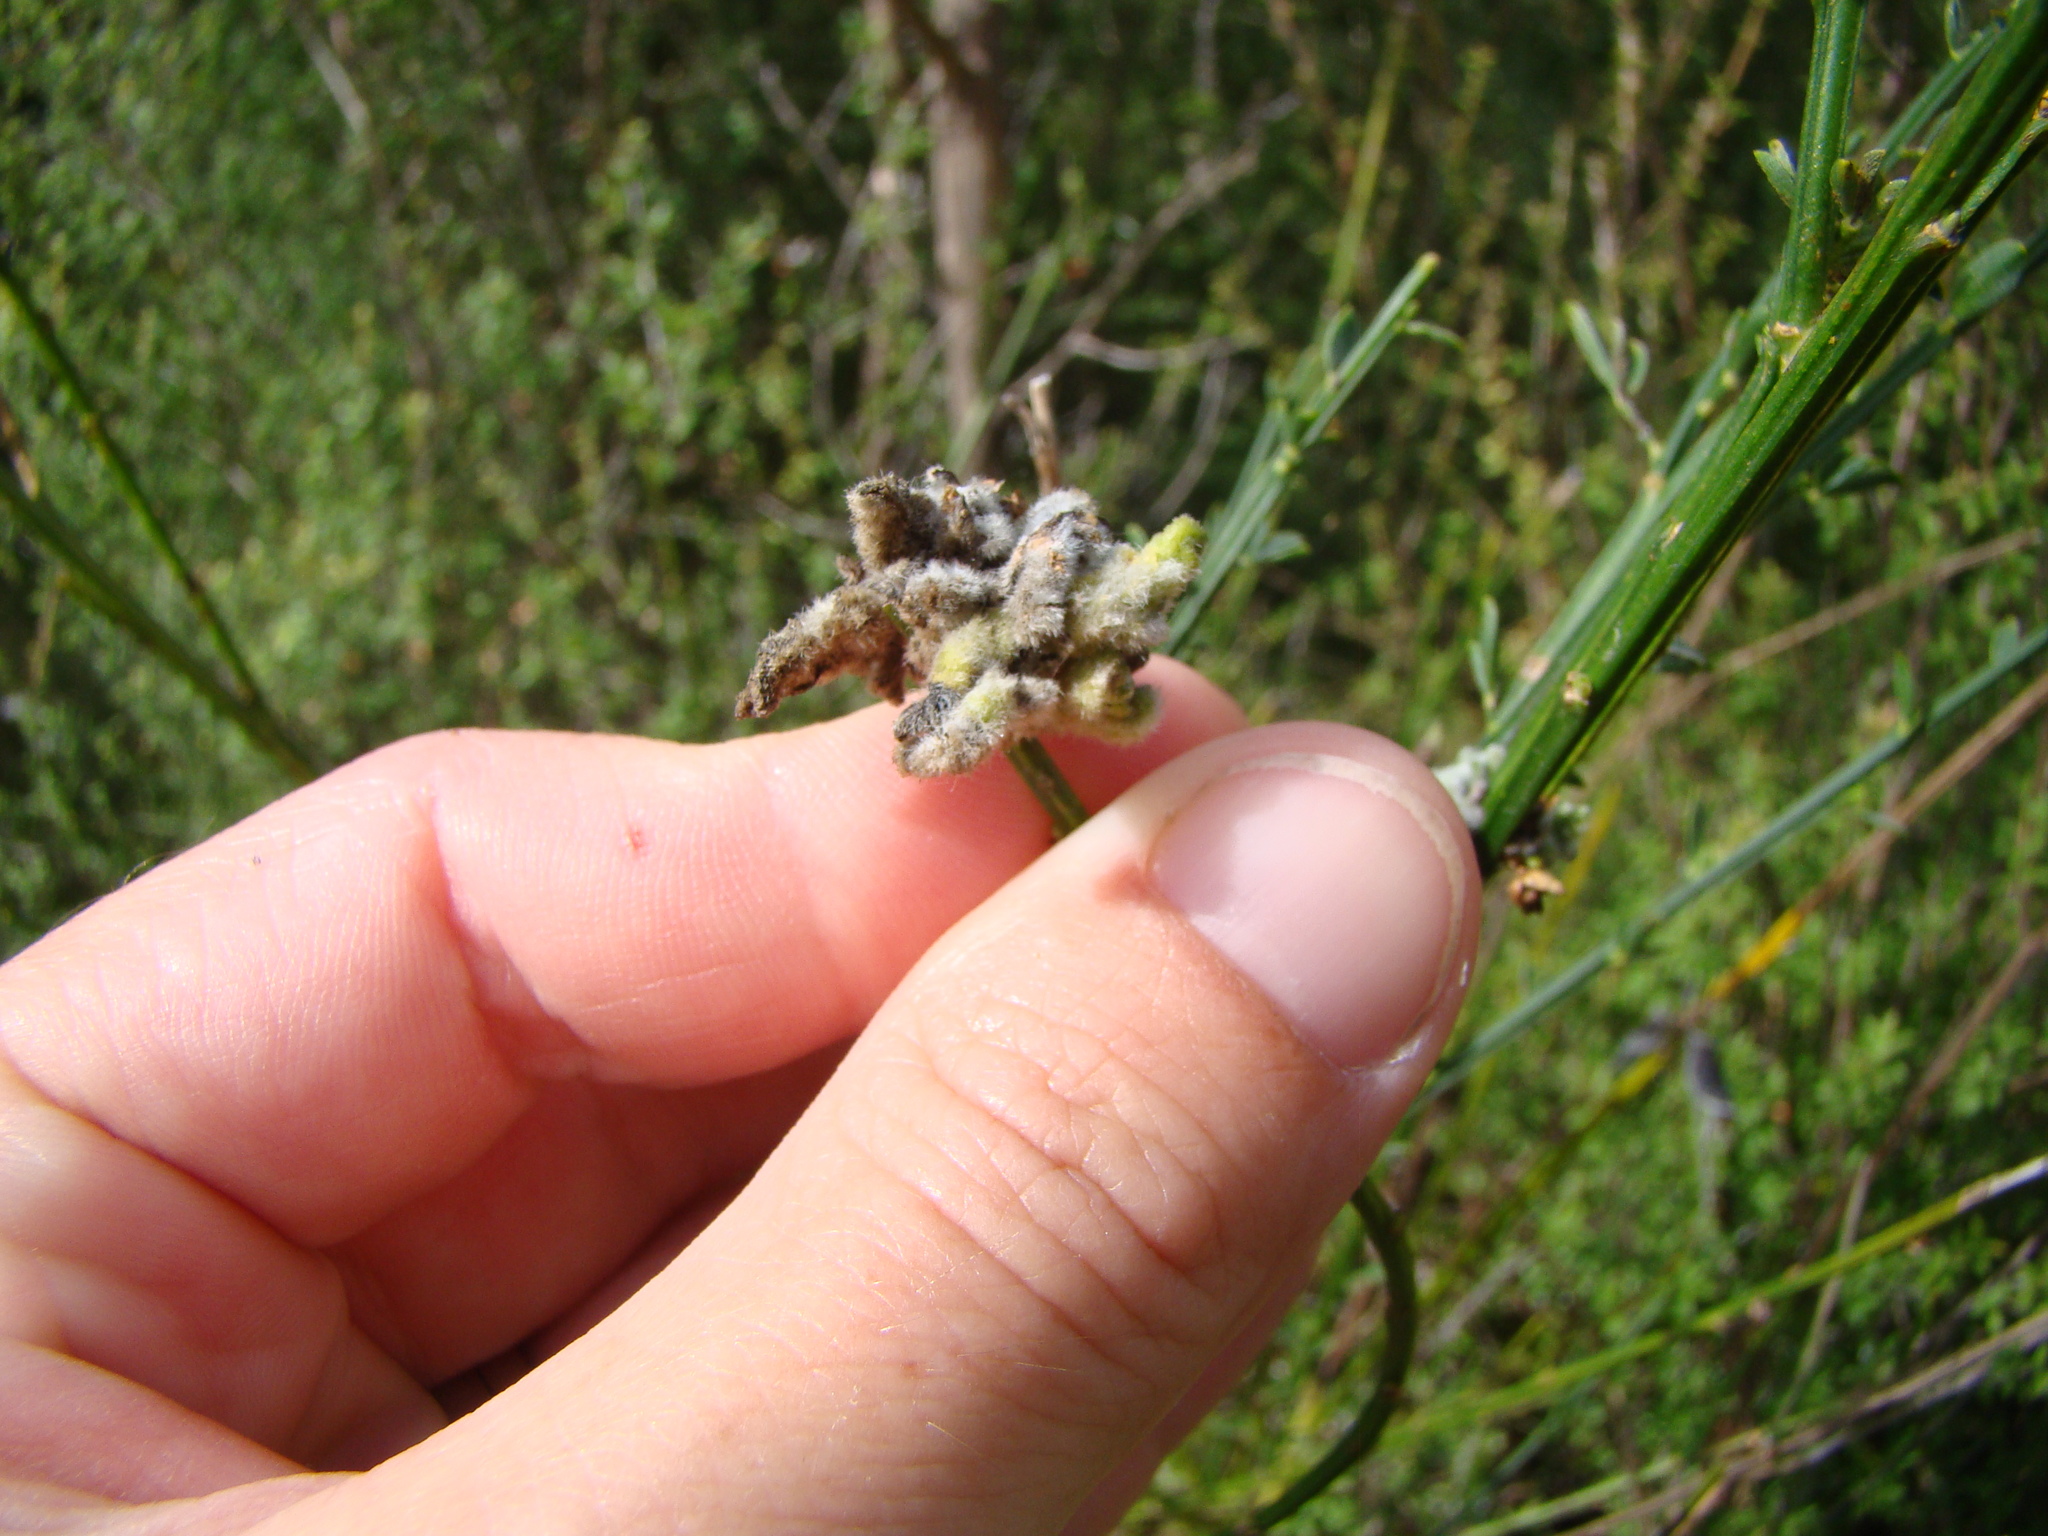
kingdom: Animalia
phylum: Arthropoda
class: Arachnida
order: Trombidiformes
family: Eriophyidae
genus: Aceria
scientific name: Aceria genistae
